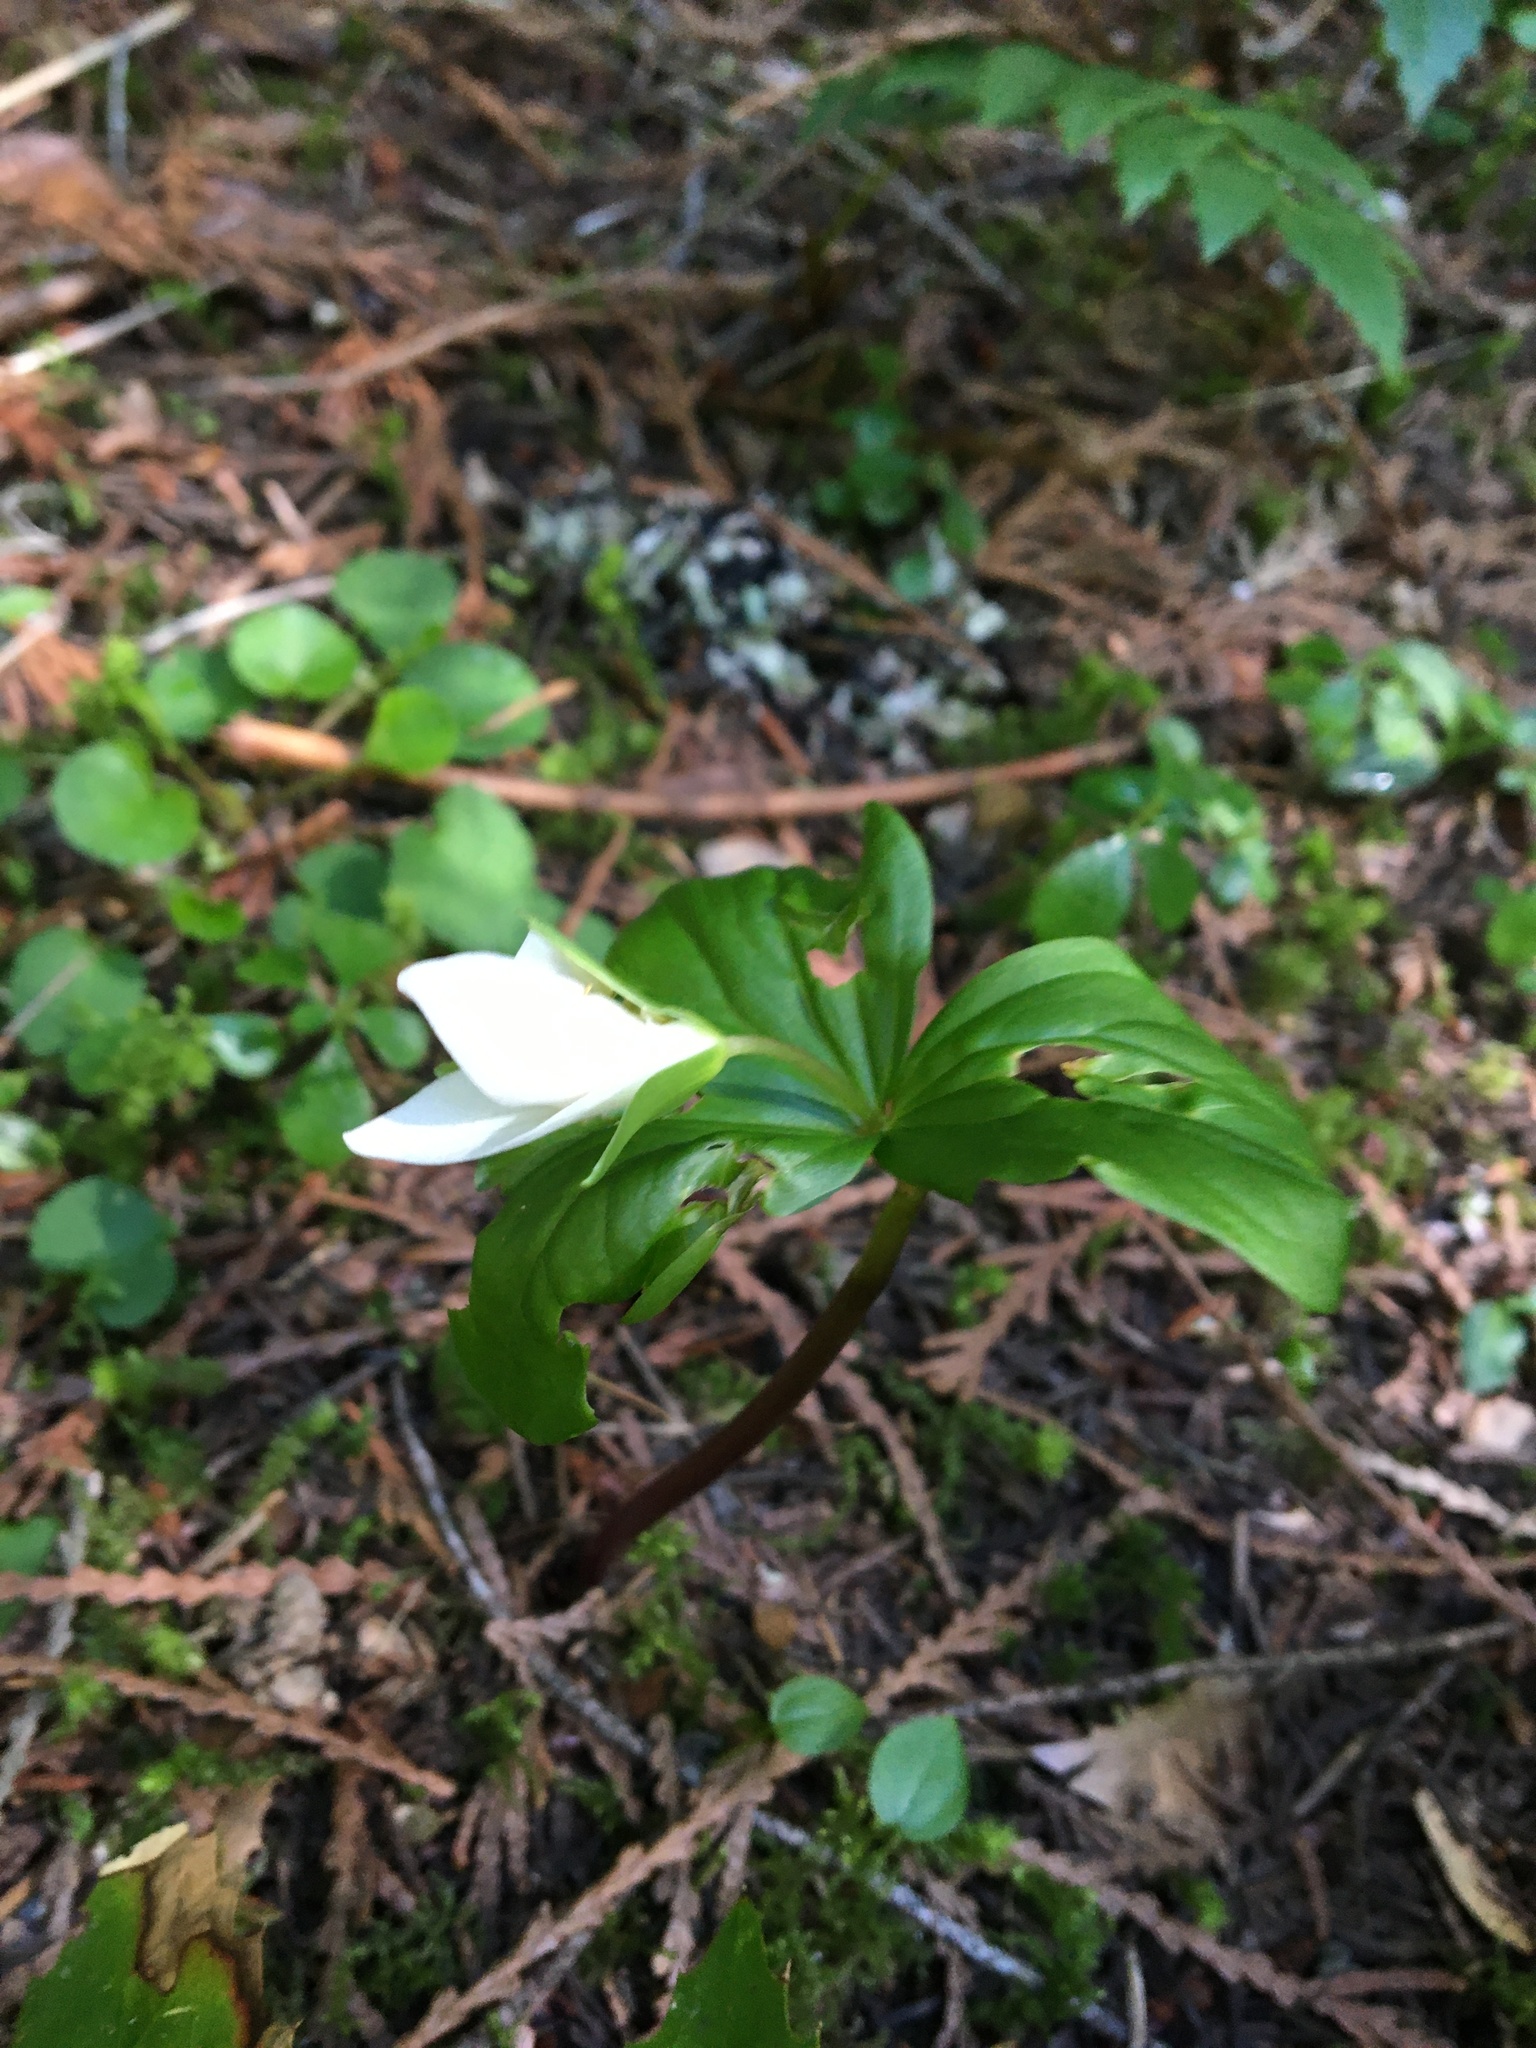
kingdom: Plantae
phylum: Tracheophyta
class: Liliopsida
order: Liliales
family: Melanthiaceae
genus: Trillium
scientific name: Trillium ovatum
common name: Pacific trillium
